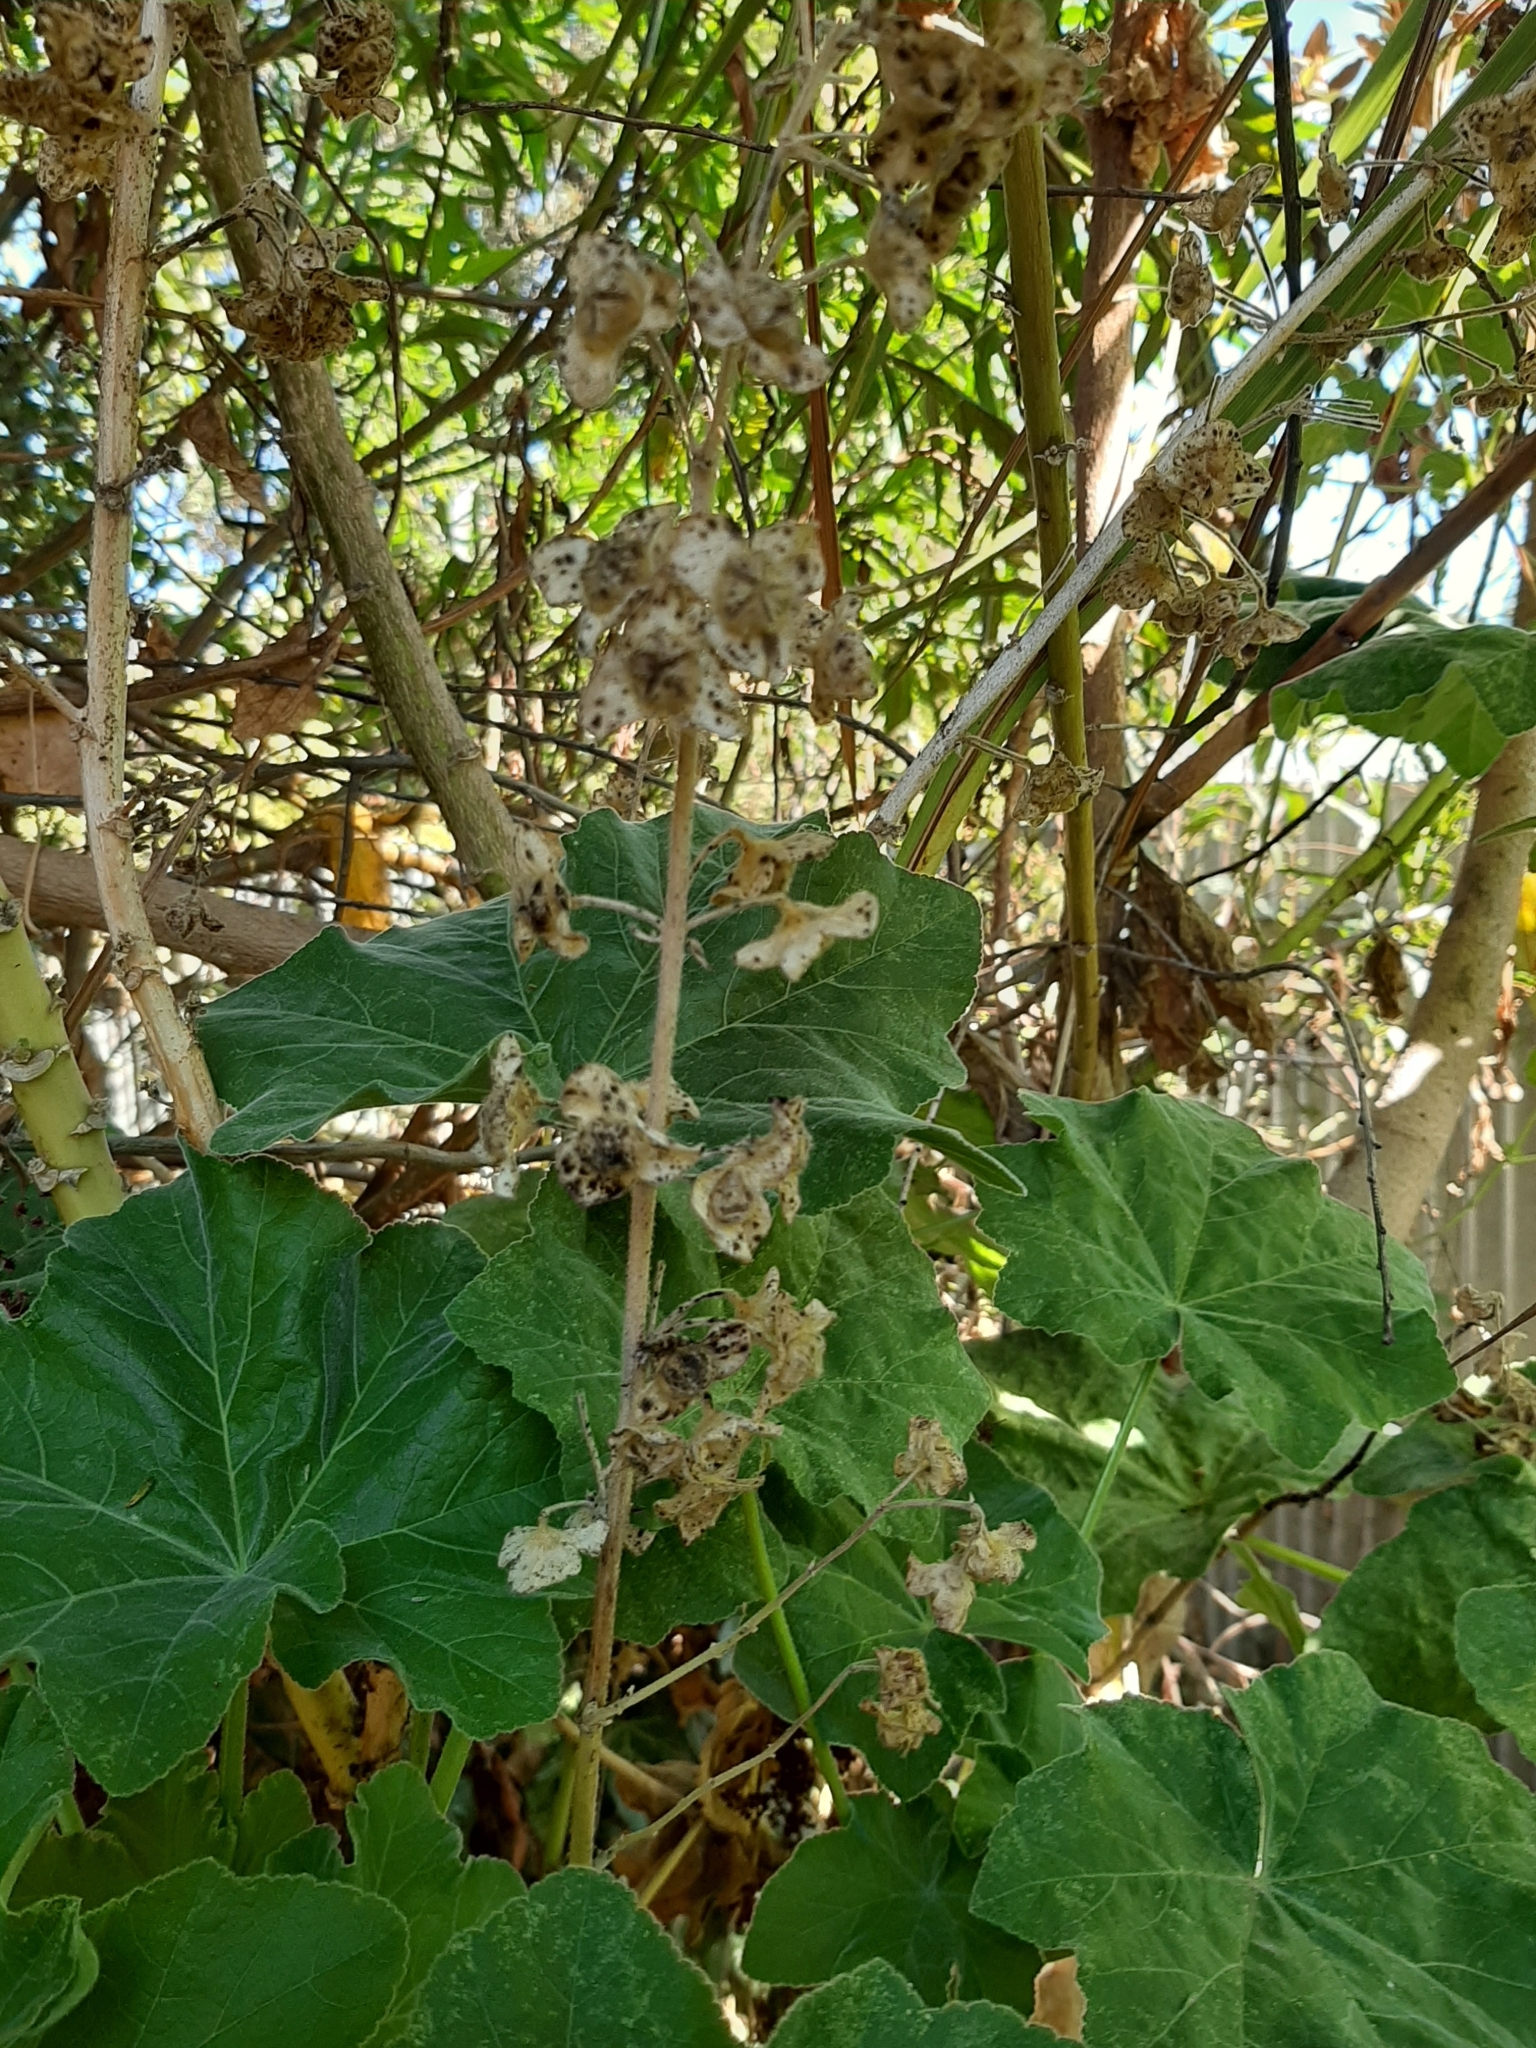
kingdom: Plantae
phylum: Tracheophyta
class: Magnoliopsida
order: Malvales
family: Malvaceae
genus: Malva
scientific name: Malva arborea
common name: Tree mallow
